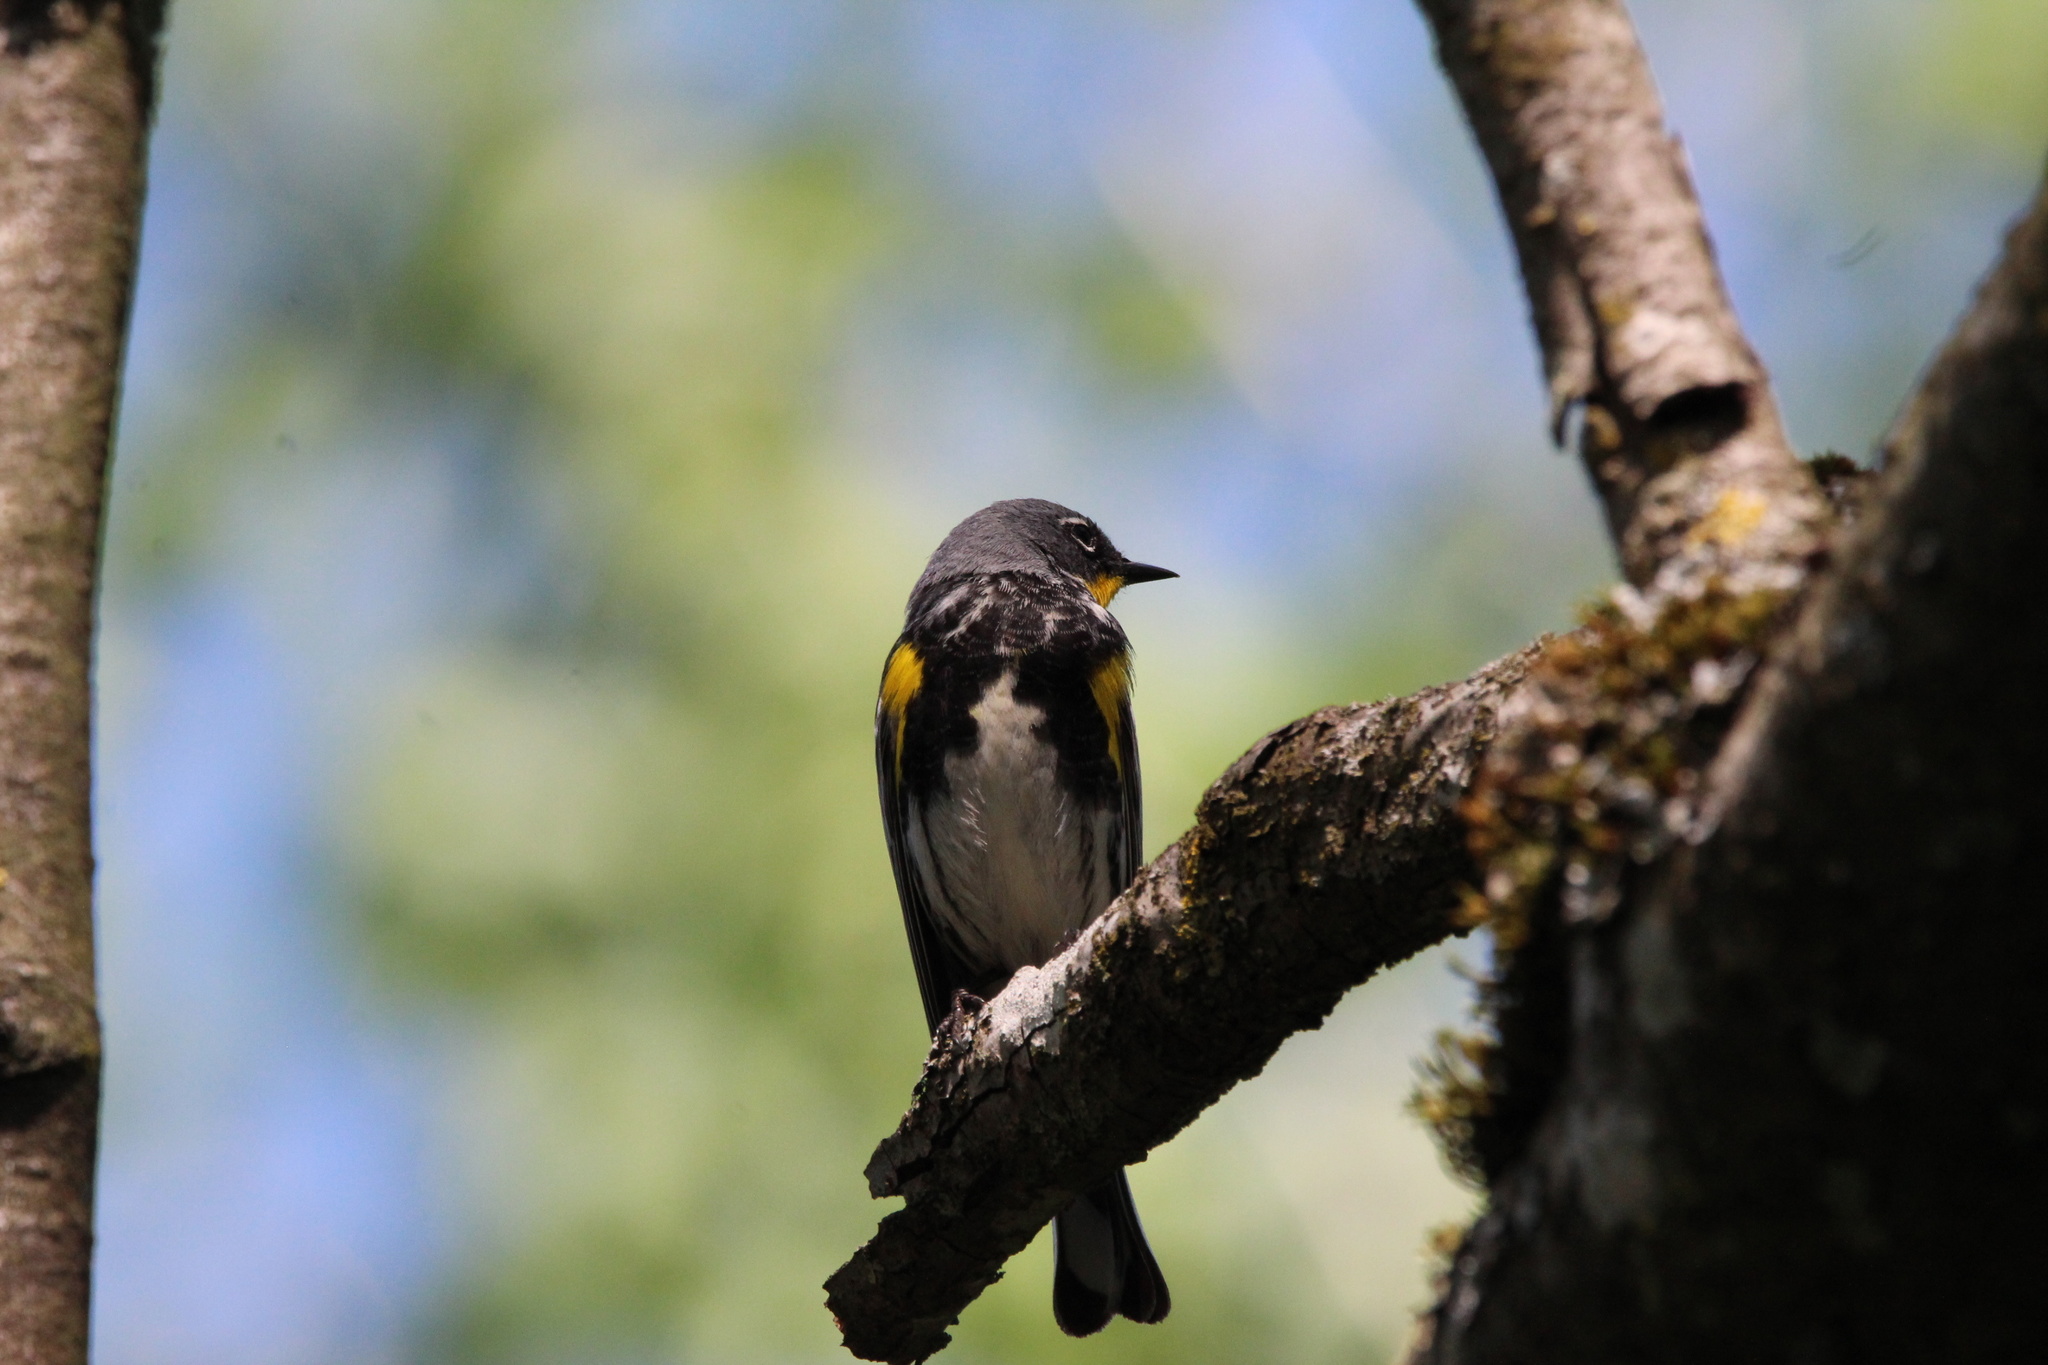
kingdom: Animalia
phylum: Chordata
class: Aves
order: Passeriformes
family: Parulidae
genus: Setophaga
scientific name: Setophaga auduboni
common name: Audubon's warbler
